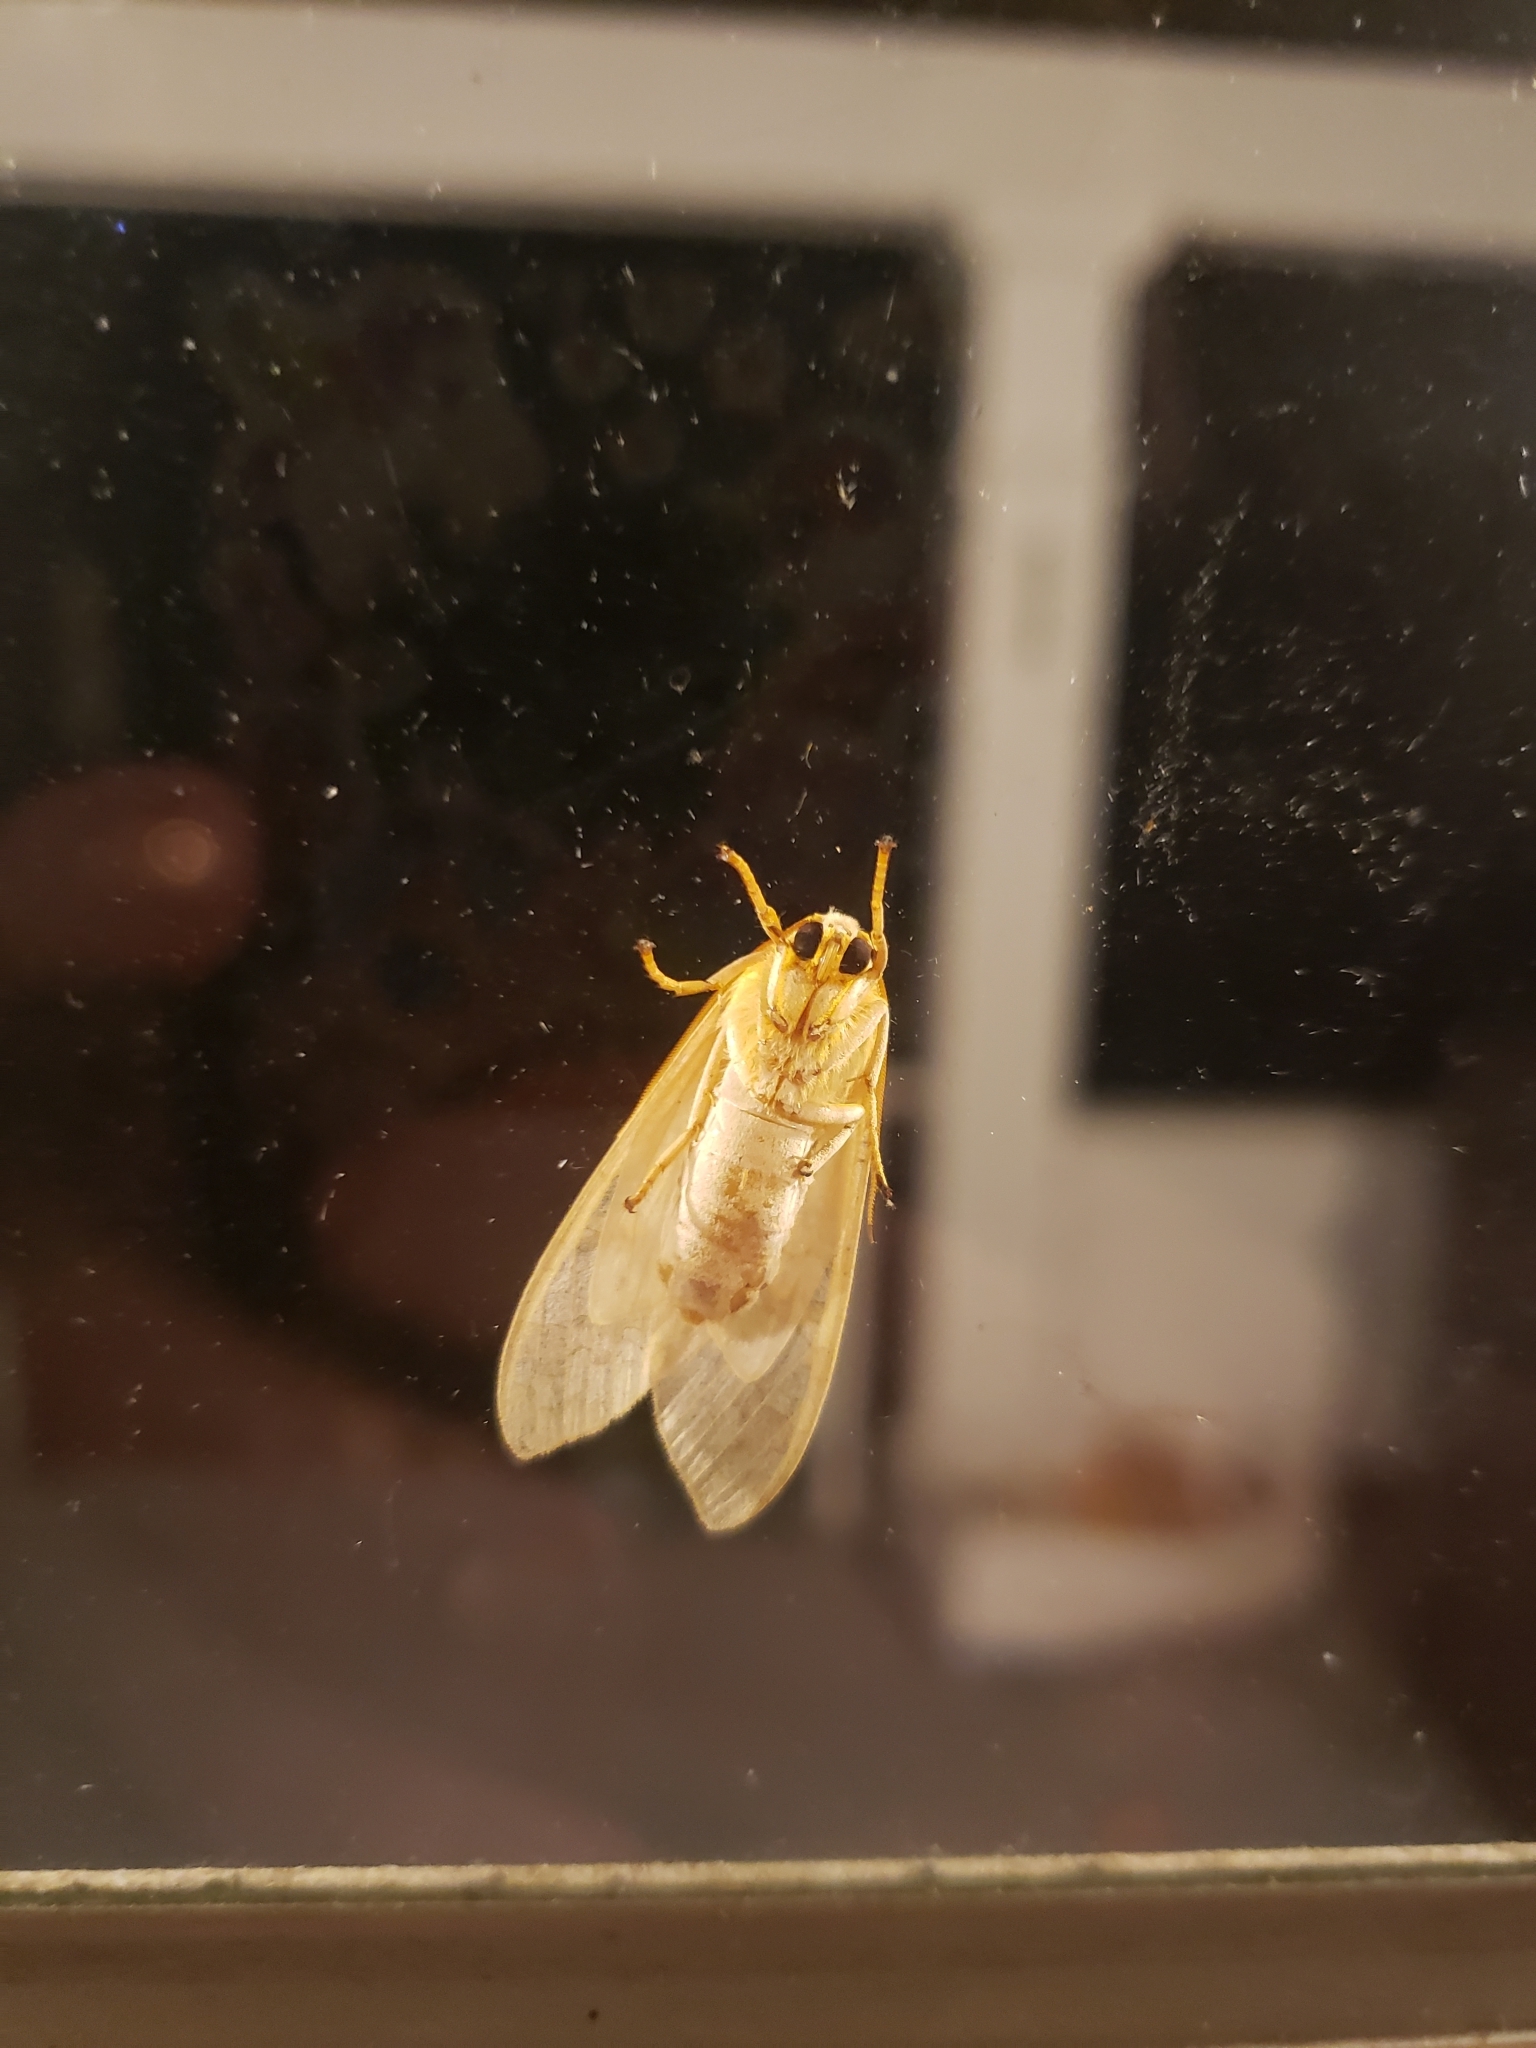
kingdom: Animalia
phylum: Arthropoda
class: Insecta
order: Lepidoptera
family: Erebidae
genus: Halysidota
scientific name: Halysidota
